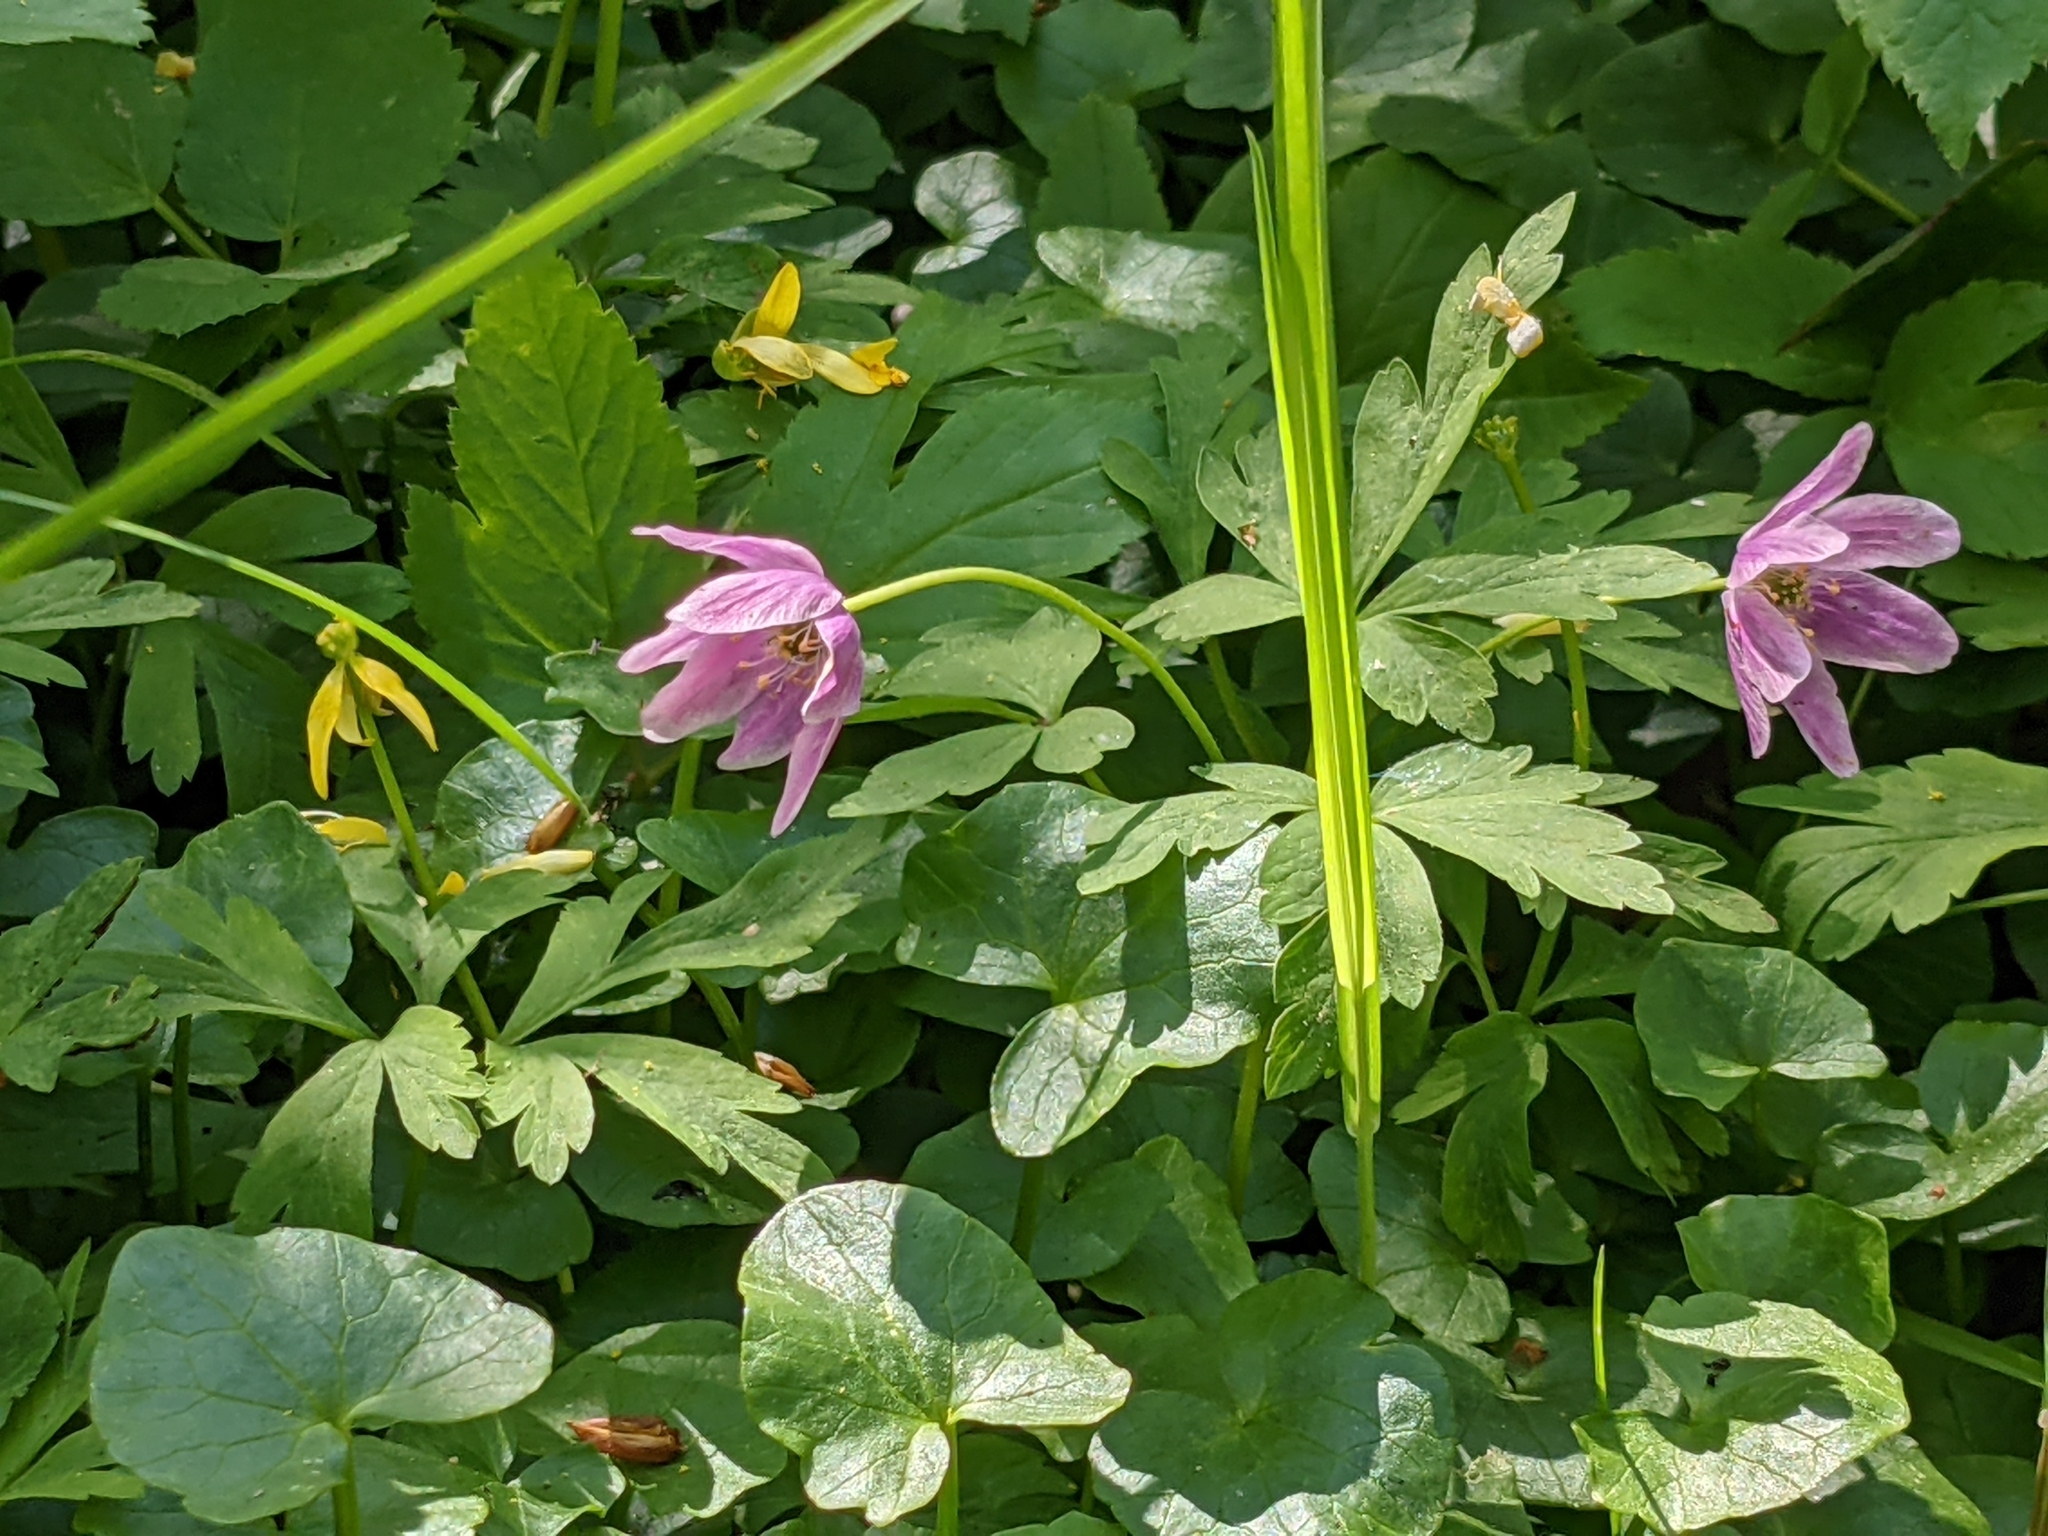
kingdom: Plantae
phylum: Tracheophyta
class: Magnoliopsida
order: Ranunculales
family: Ranunculaceae
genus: Anemone
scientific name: Anemone nemorosa
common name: Wood anemone
